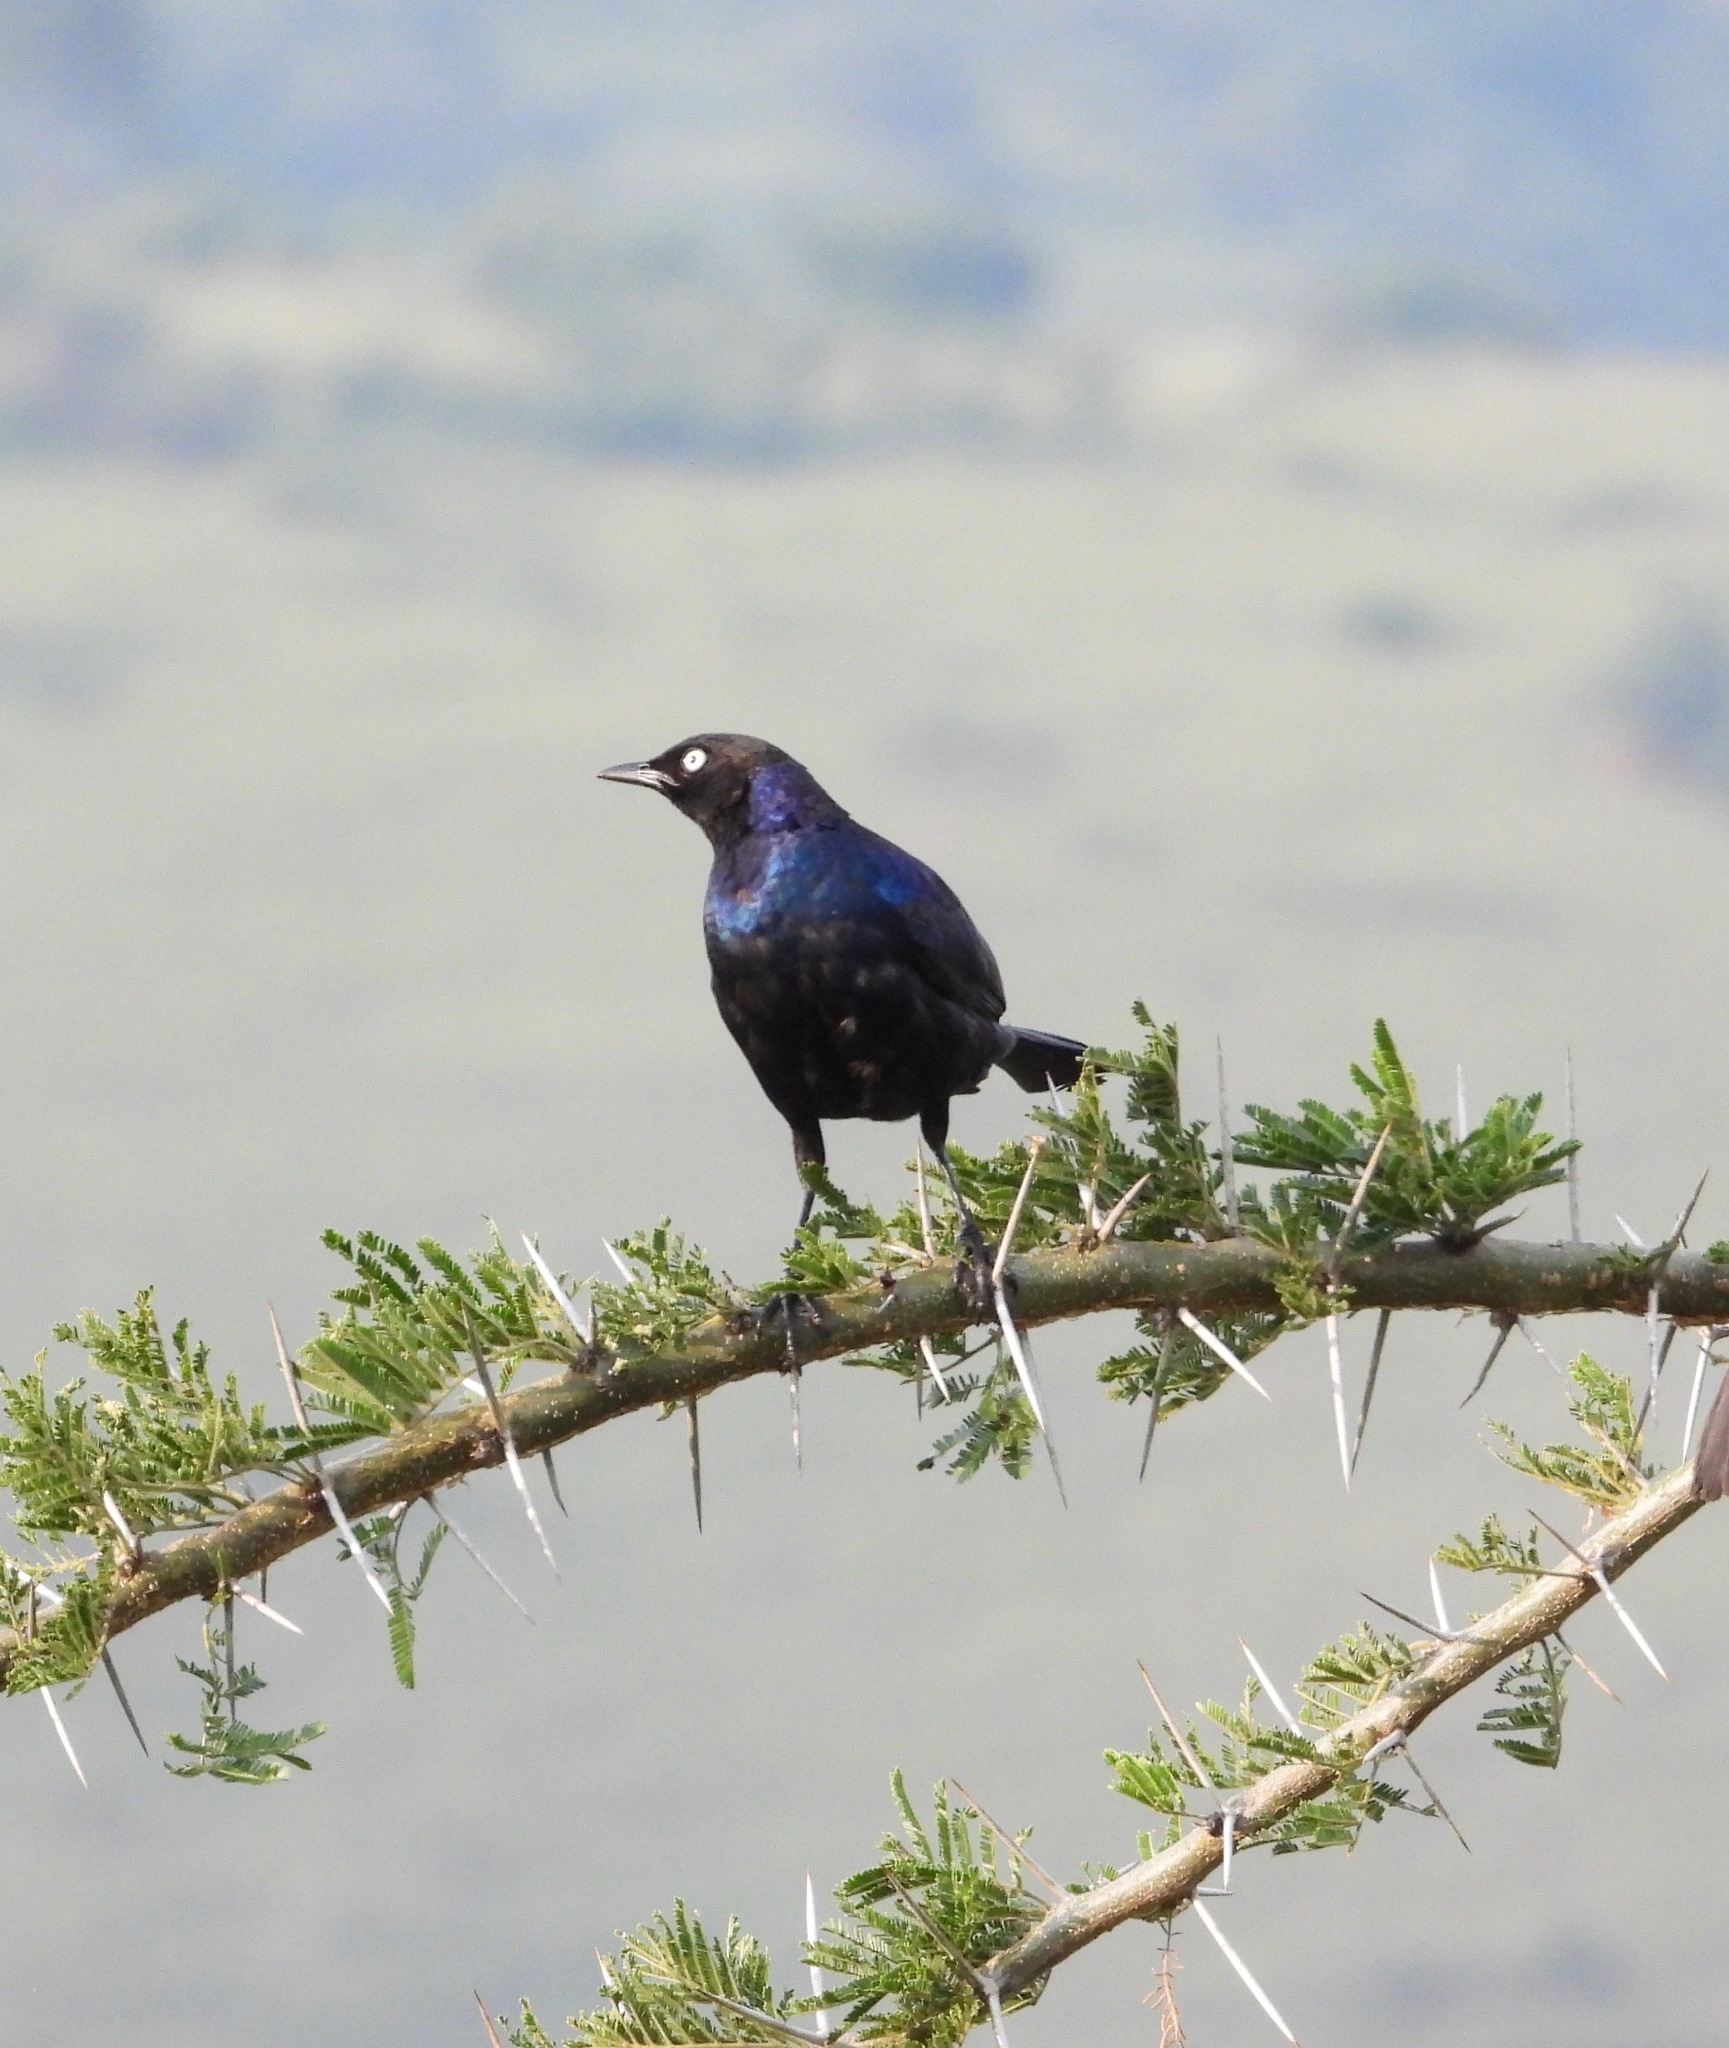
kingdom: Animalia
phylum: Chordata
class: Aves
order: Passeriformes
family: Sturnidae
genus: Lamprotornis
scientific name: Lamprotornis purpuroptera
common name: Rüppell's starling
